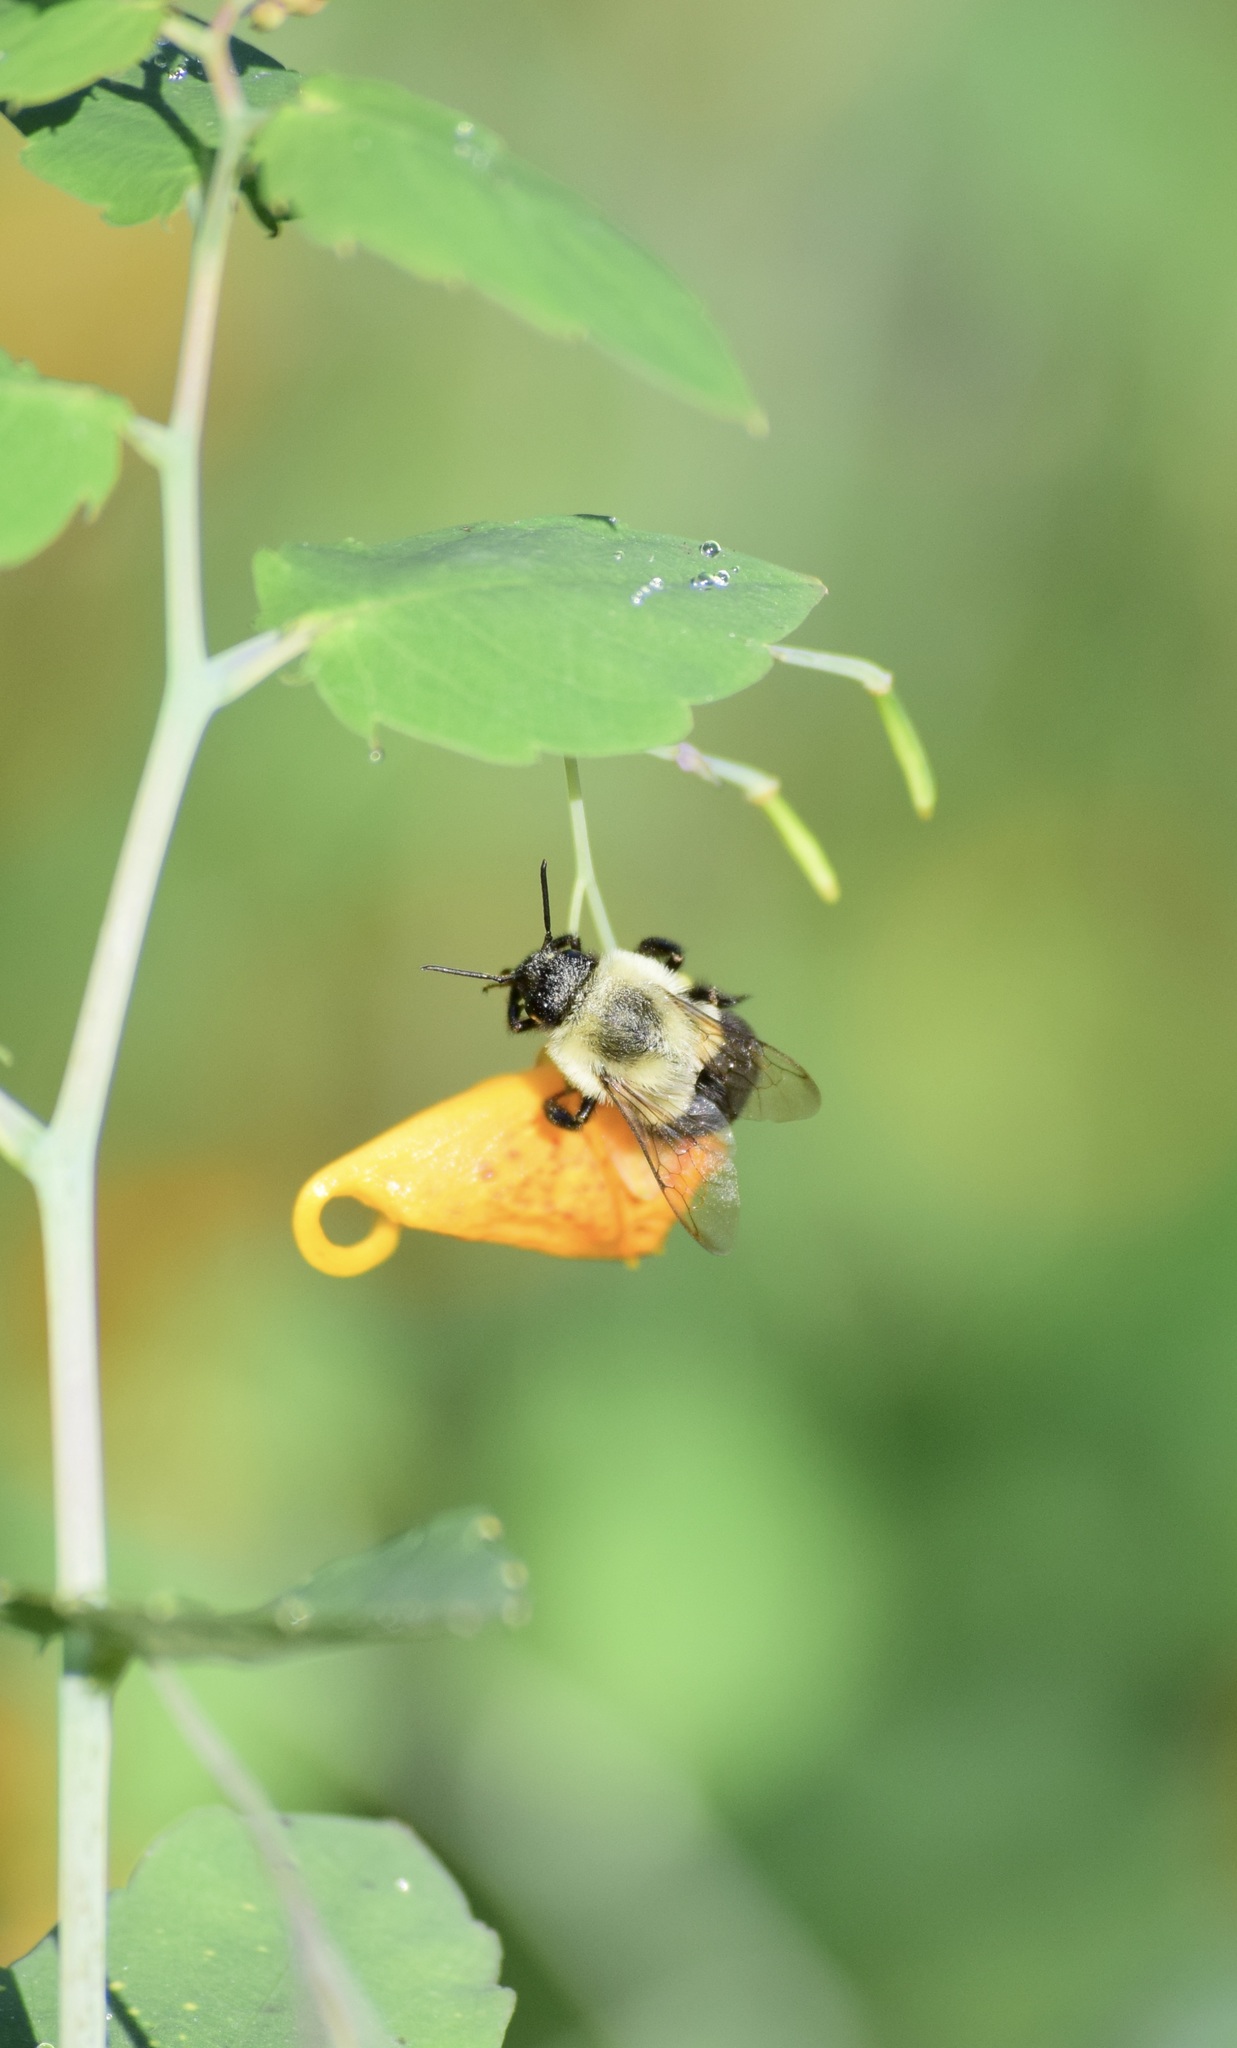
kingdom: Animalia
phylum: Arthropoda
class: Insecta
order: Hymenoptera
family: Apidae
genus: Bombus
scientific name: Bombus impatiens
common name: Common eastern bumble bee
